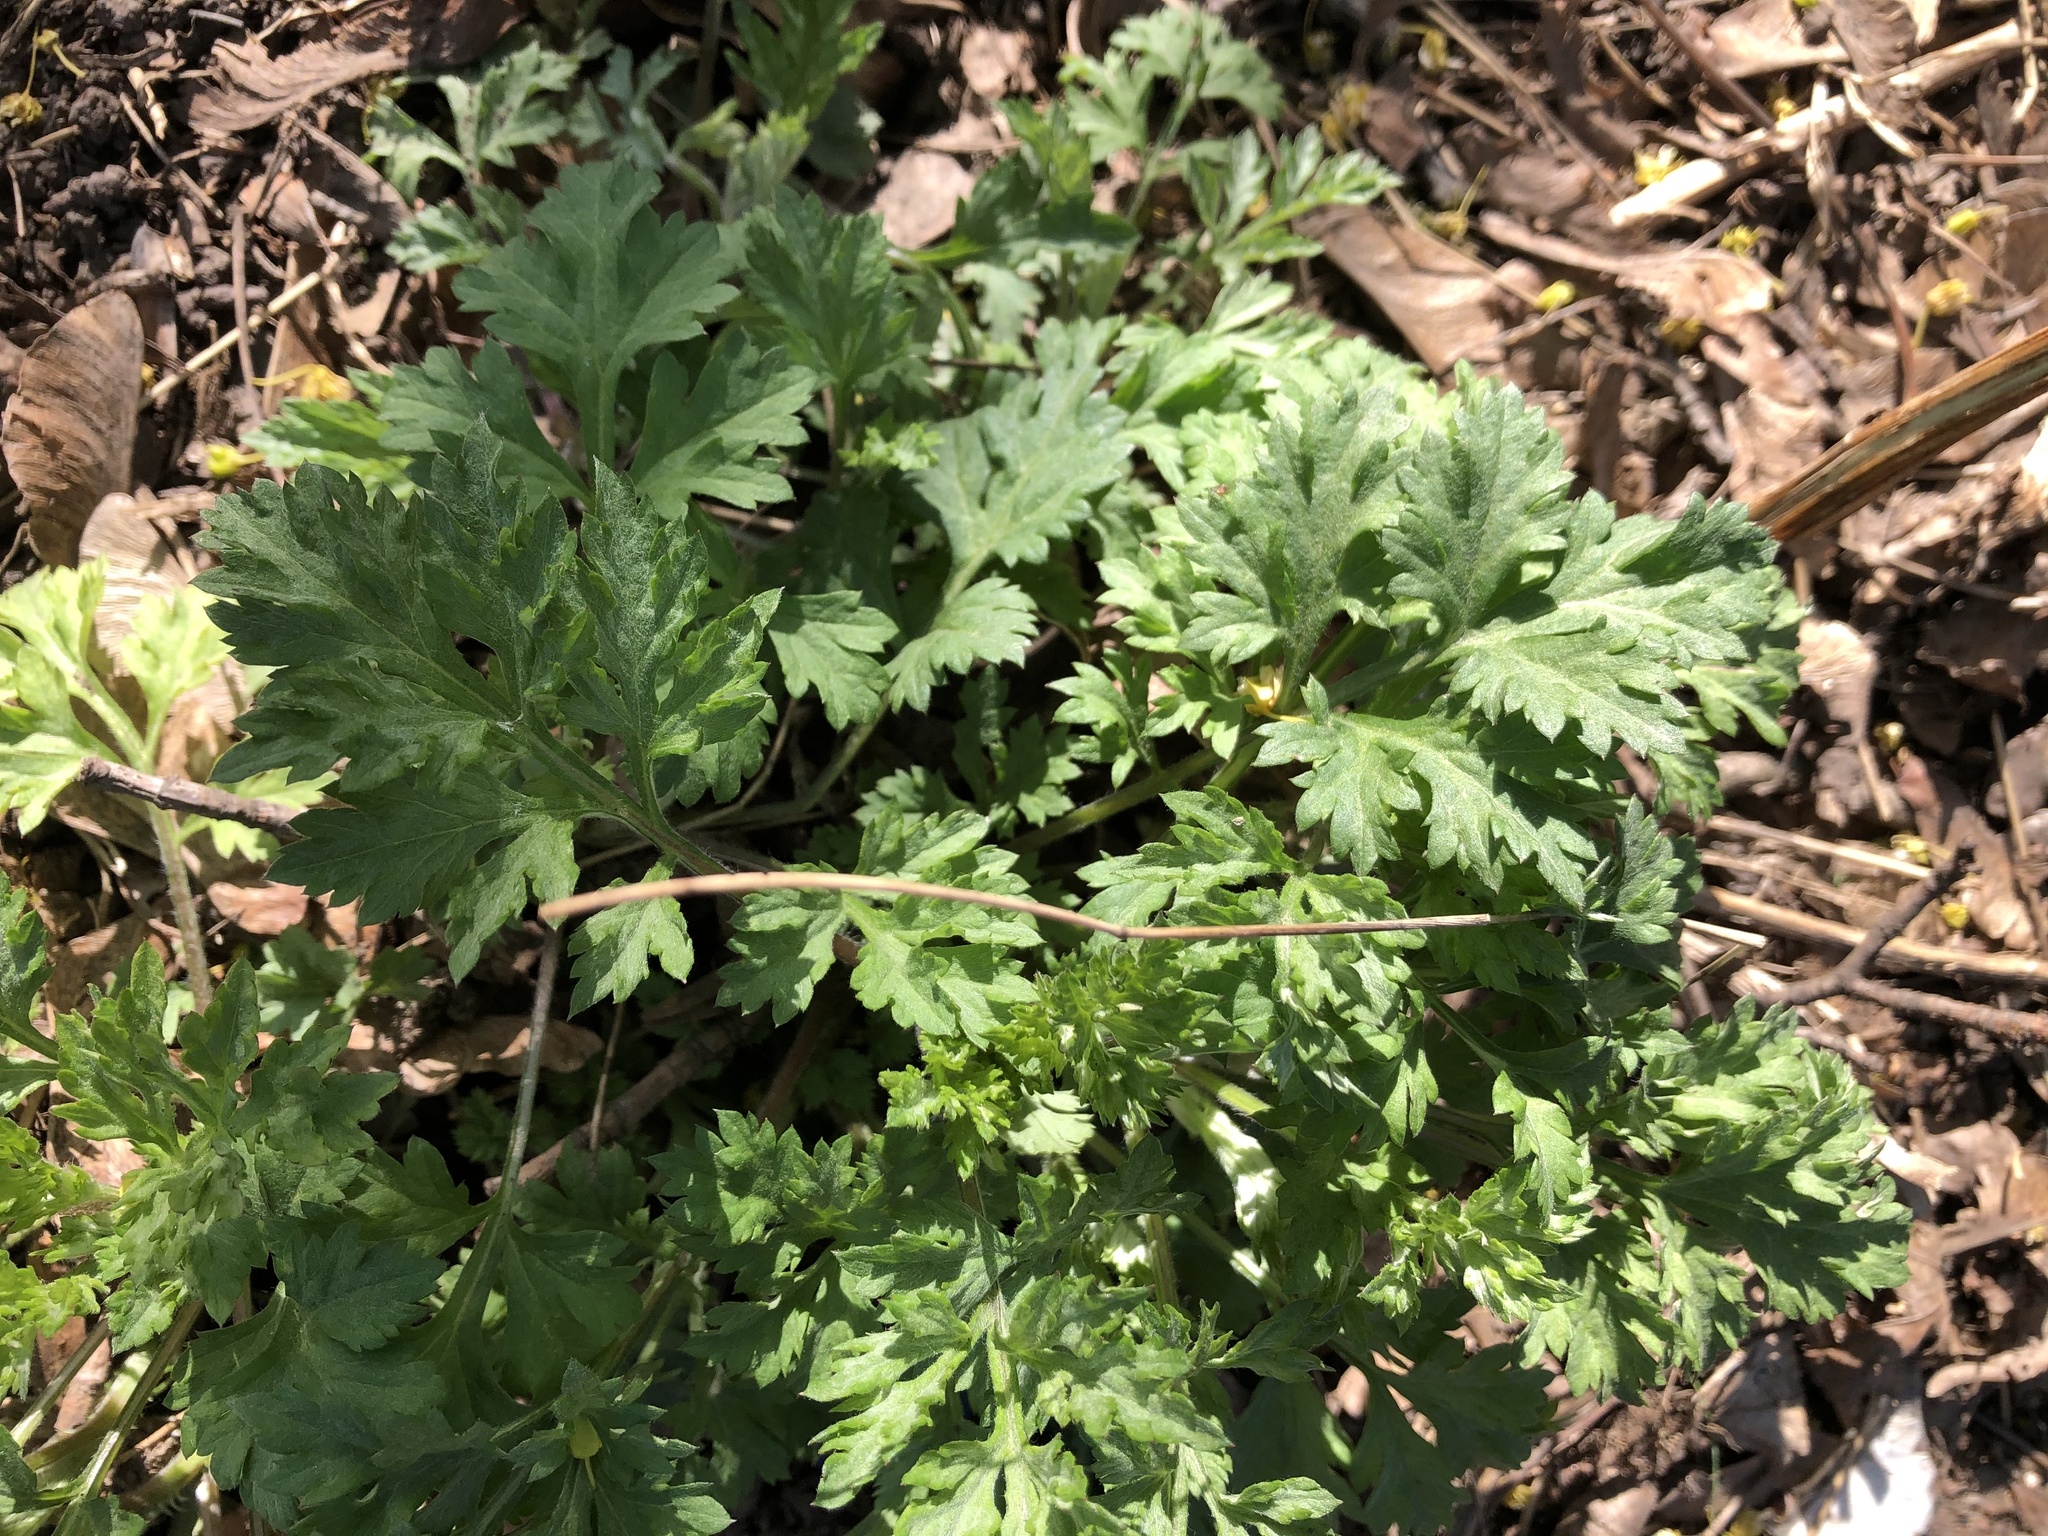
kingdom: Plantae
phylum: Tracheophyta
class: Magnoliopsida
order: Asterales
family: Asteraceae
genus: Artemisia
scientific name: Artemisia vulgaris
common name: Mugwort
